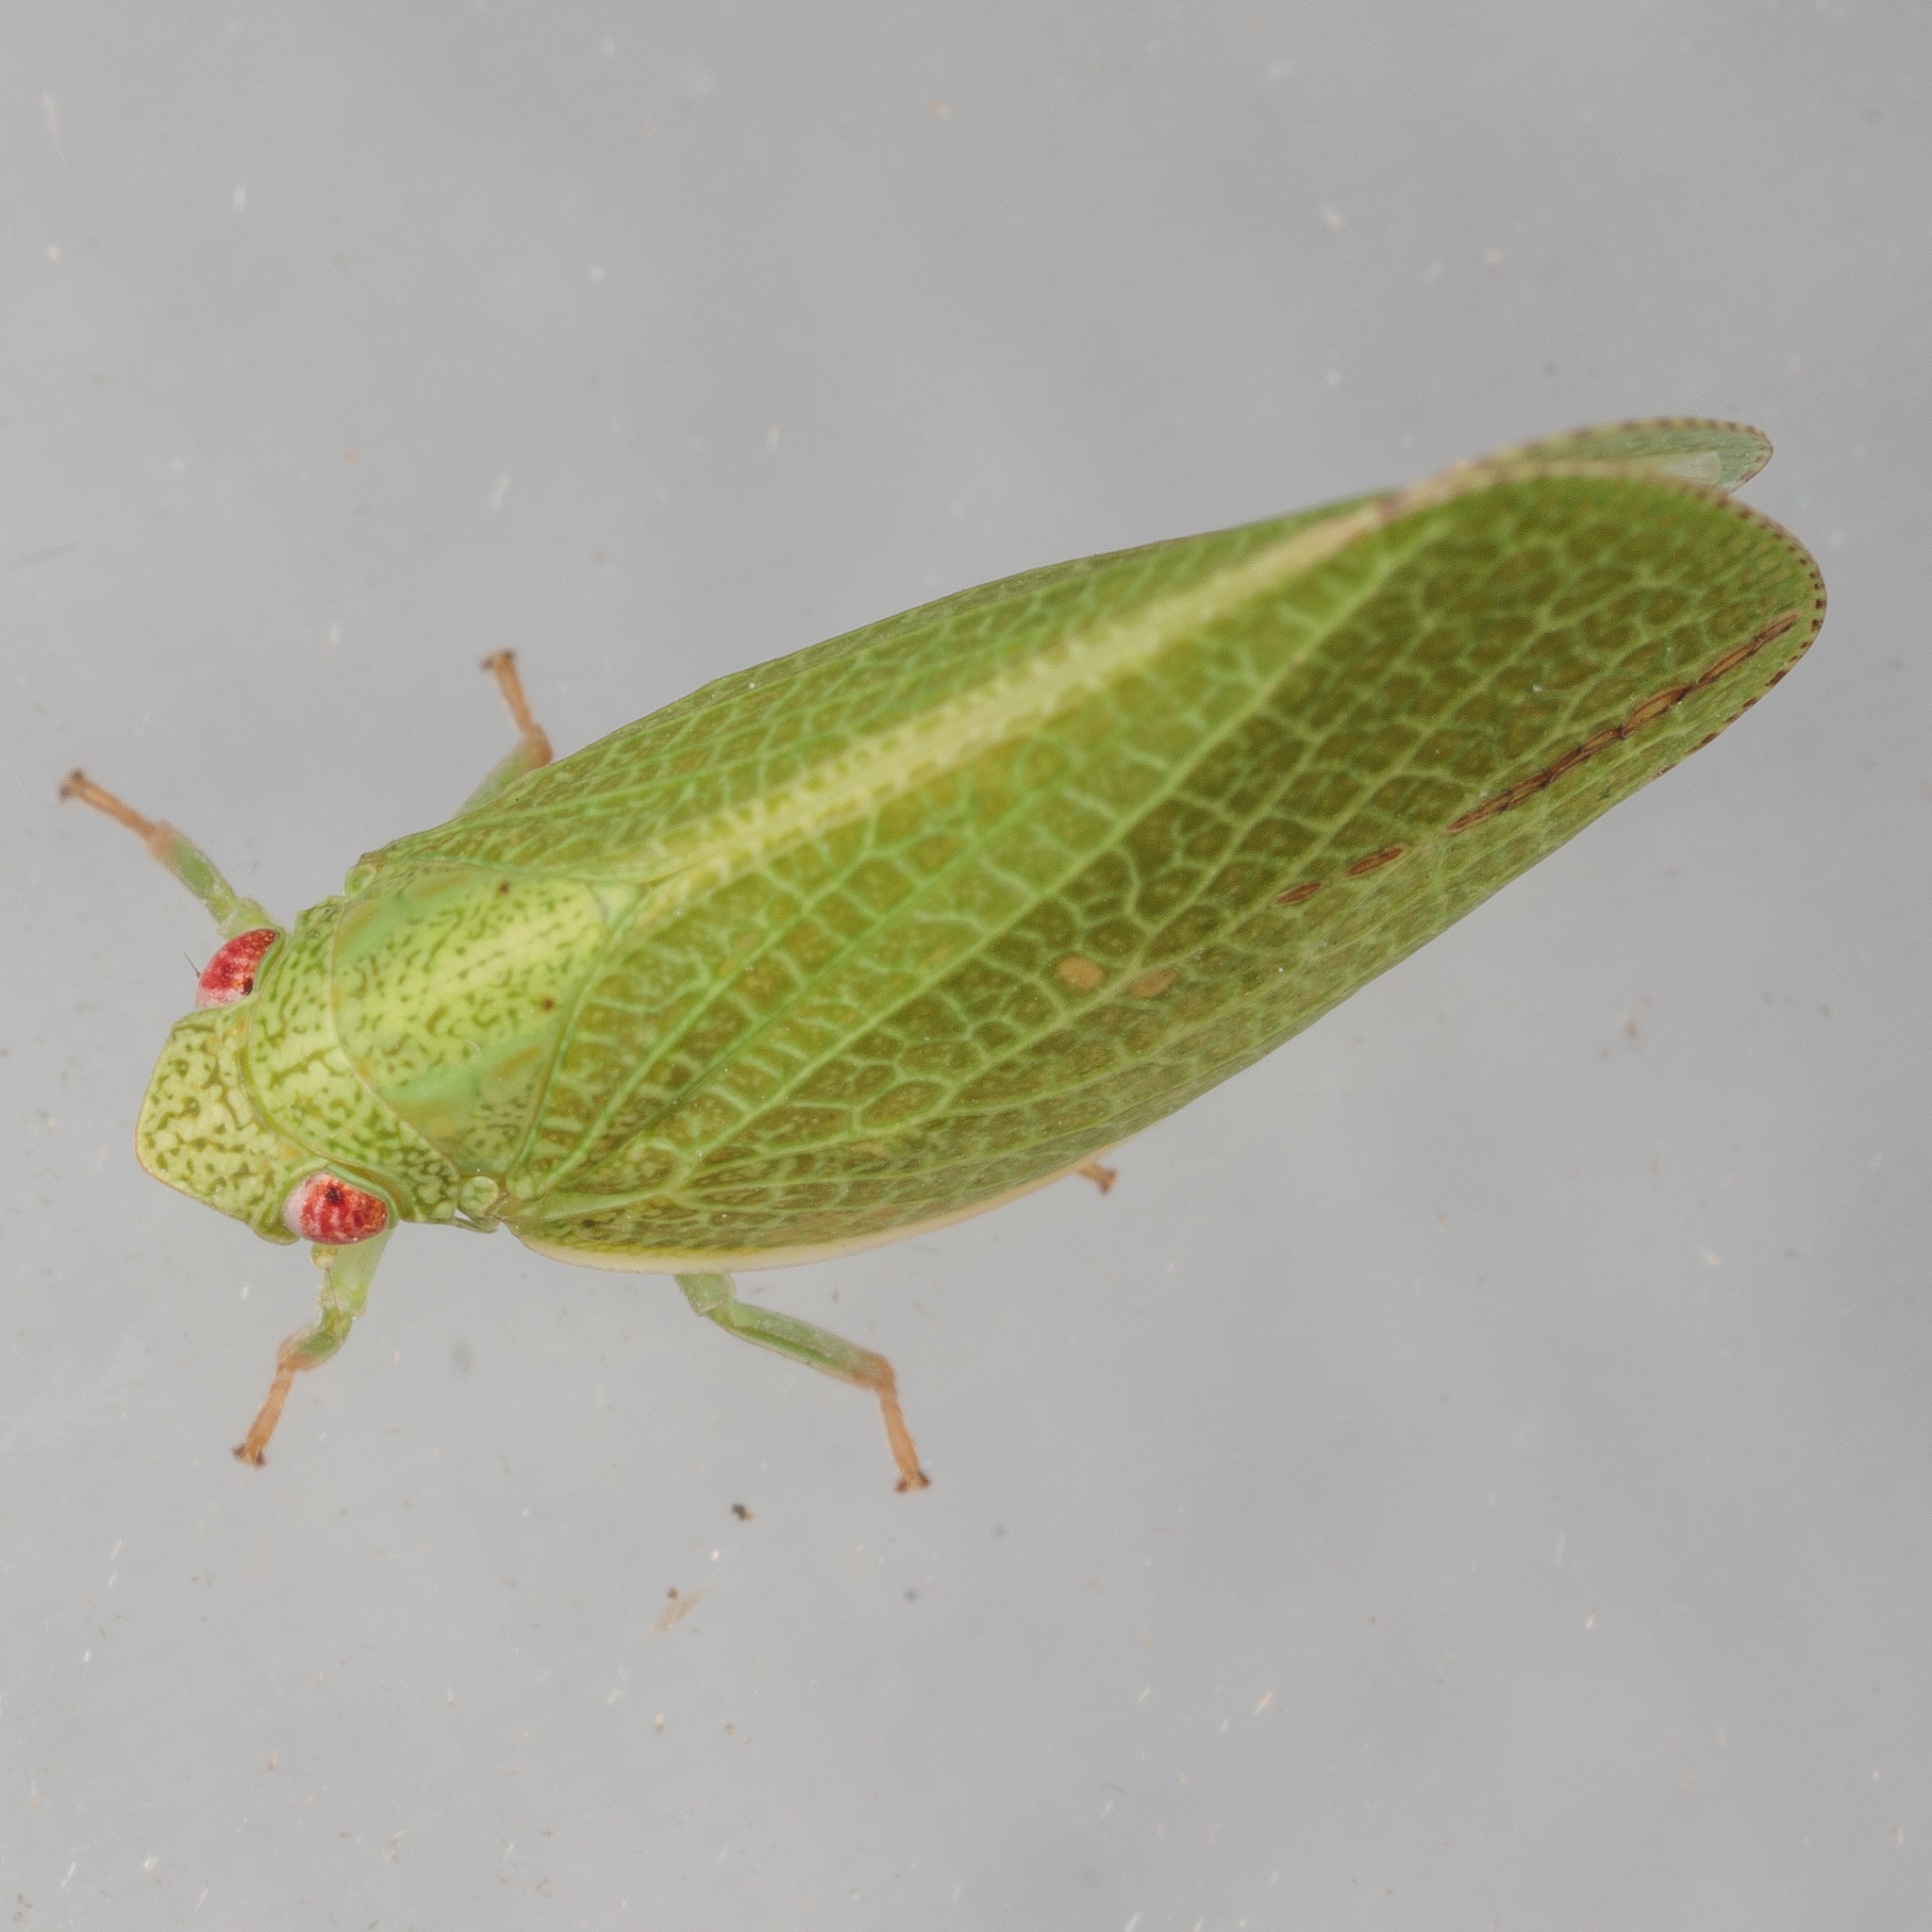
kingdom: Animalia
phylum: Arthropoda
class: Insecta
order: Hemiptera
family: Acanaloniidae
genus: Acanalonia
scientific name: Acanalonia conica
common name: Green cone-headed planthopper
